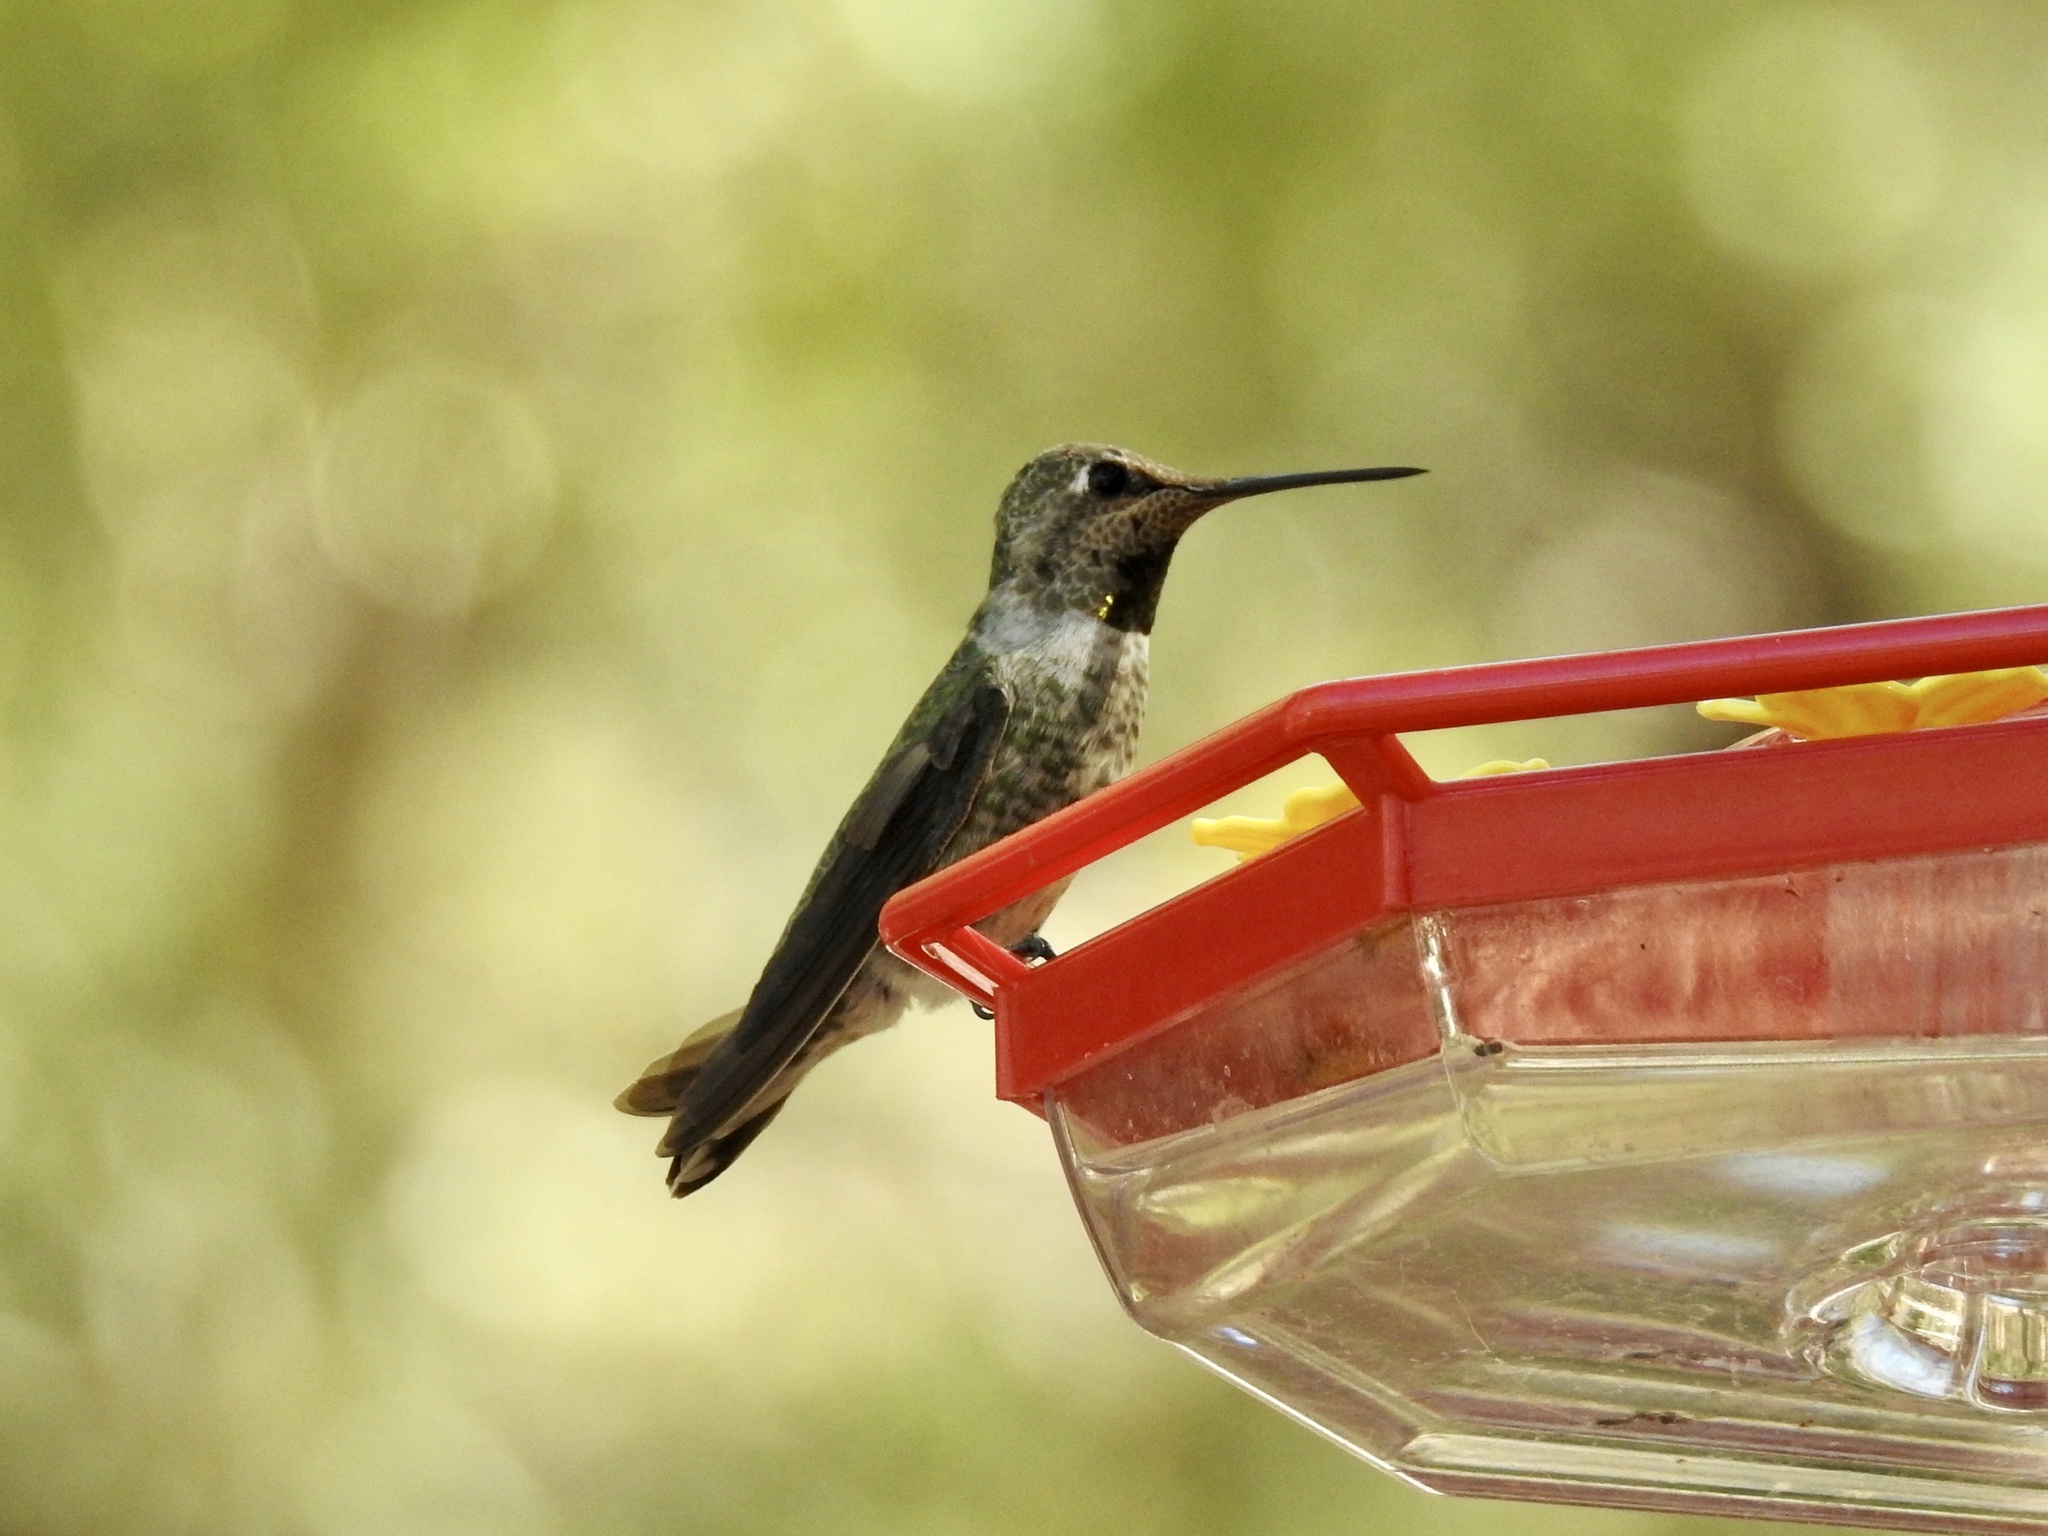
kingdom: Animalia
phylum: Chordata
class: Aves
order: Apodiformes
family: Trochilidae
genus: Calypte
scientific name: Calypte anna
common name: Anna's hummingbird
